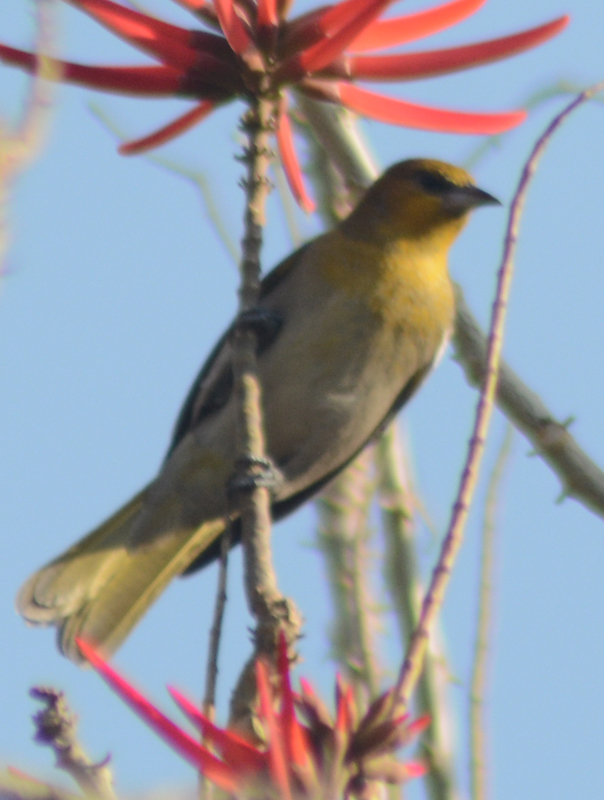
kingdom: Animalia
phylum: Chordata
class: Aves
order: Passeriformes
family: Icteridae
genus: Icterus
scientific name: Icterus abeillei
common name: Black-backed oriole
